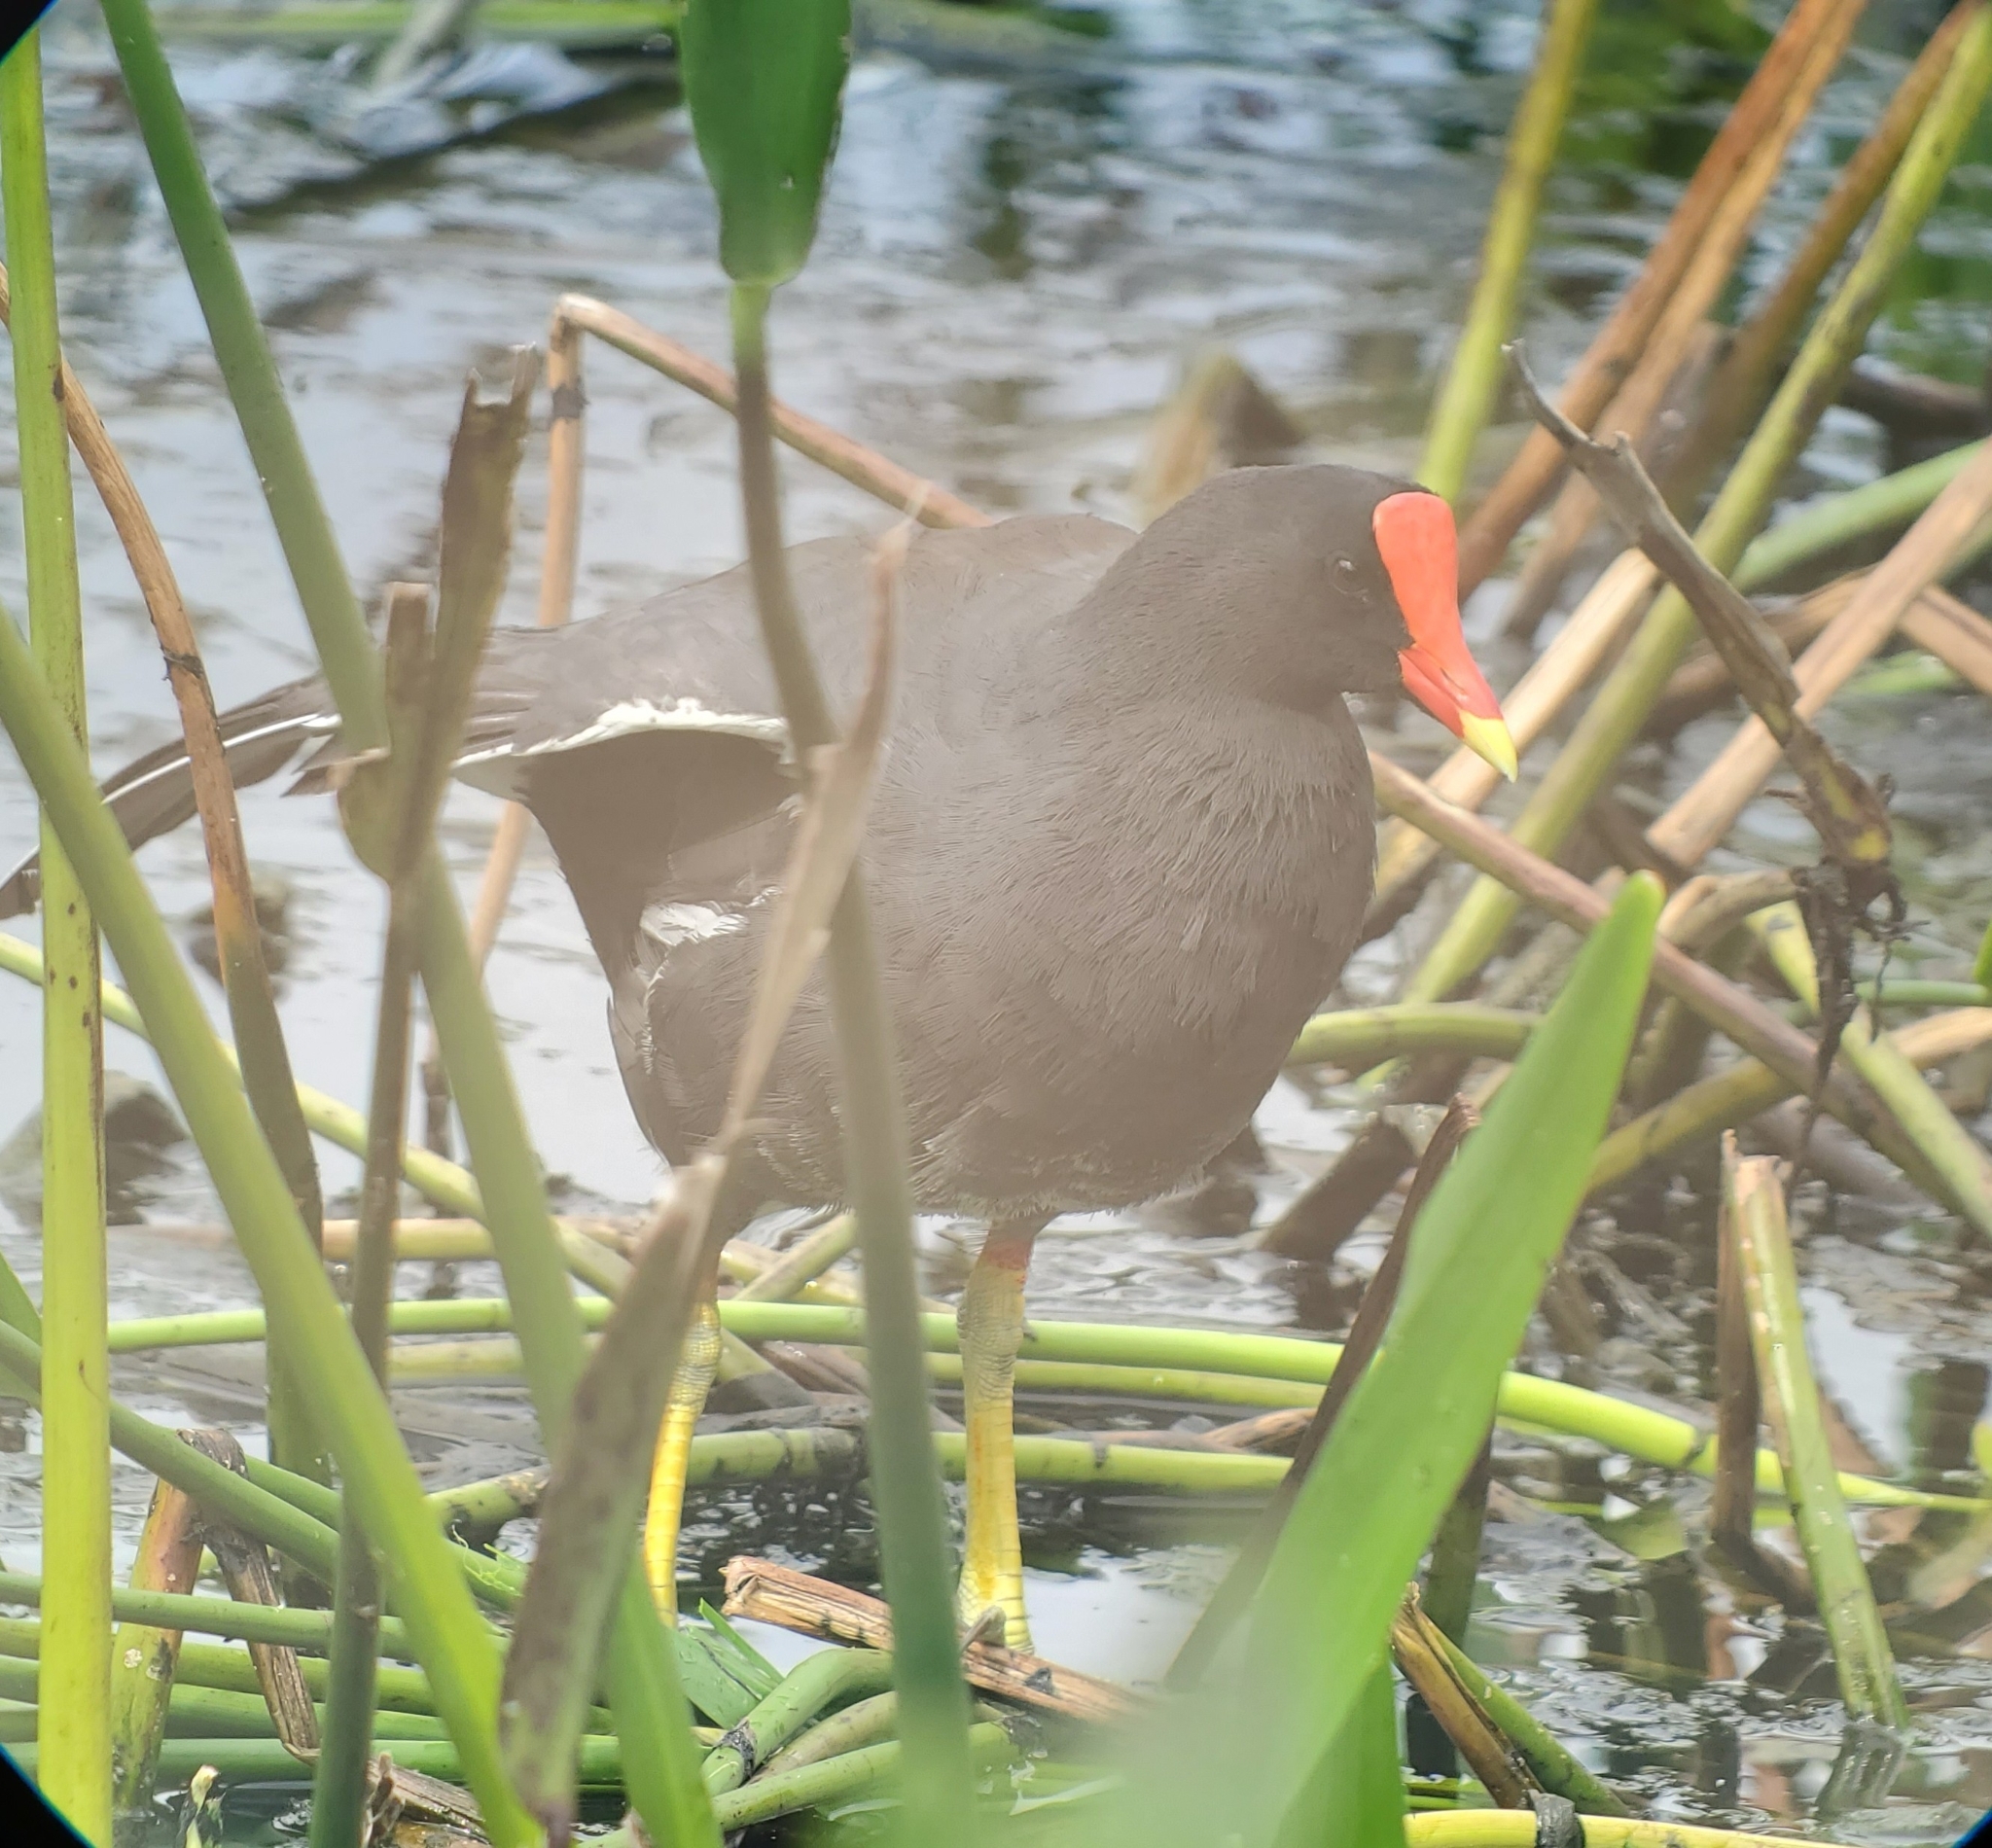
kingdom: Animalia
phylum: Chordata
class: Aves
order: Gruiformes
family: Rallidae
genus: Gallinula
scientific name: Gallinula chloropus
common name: Common moorhen
